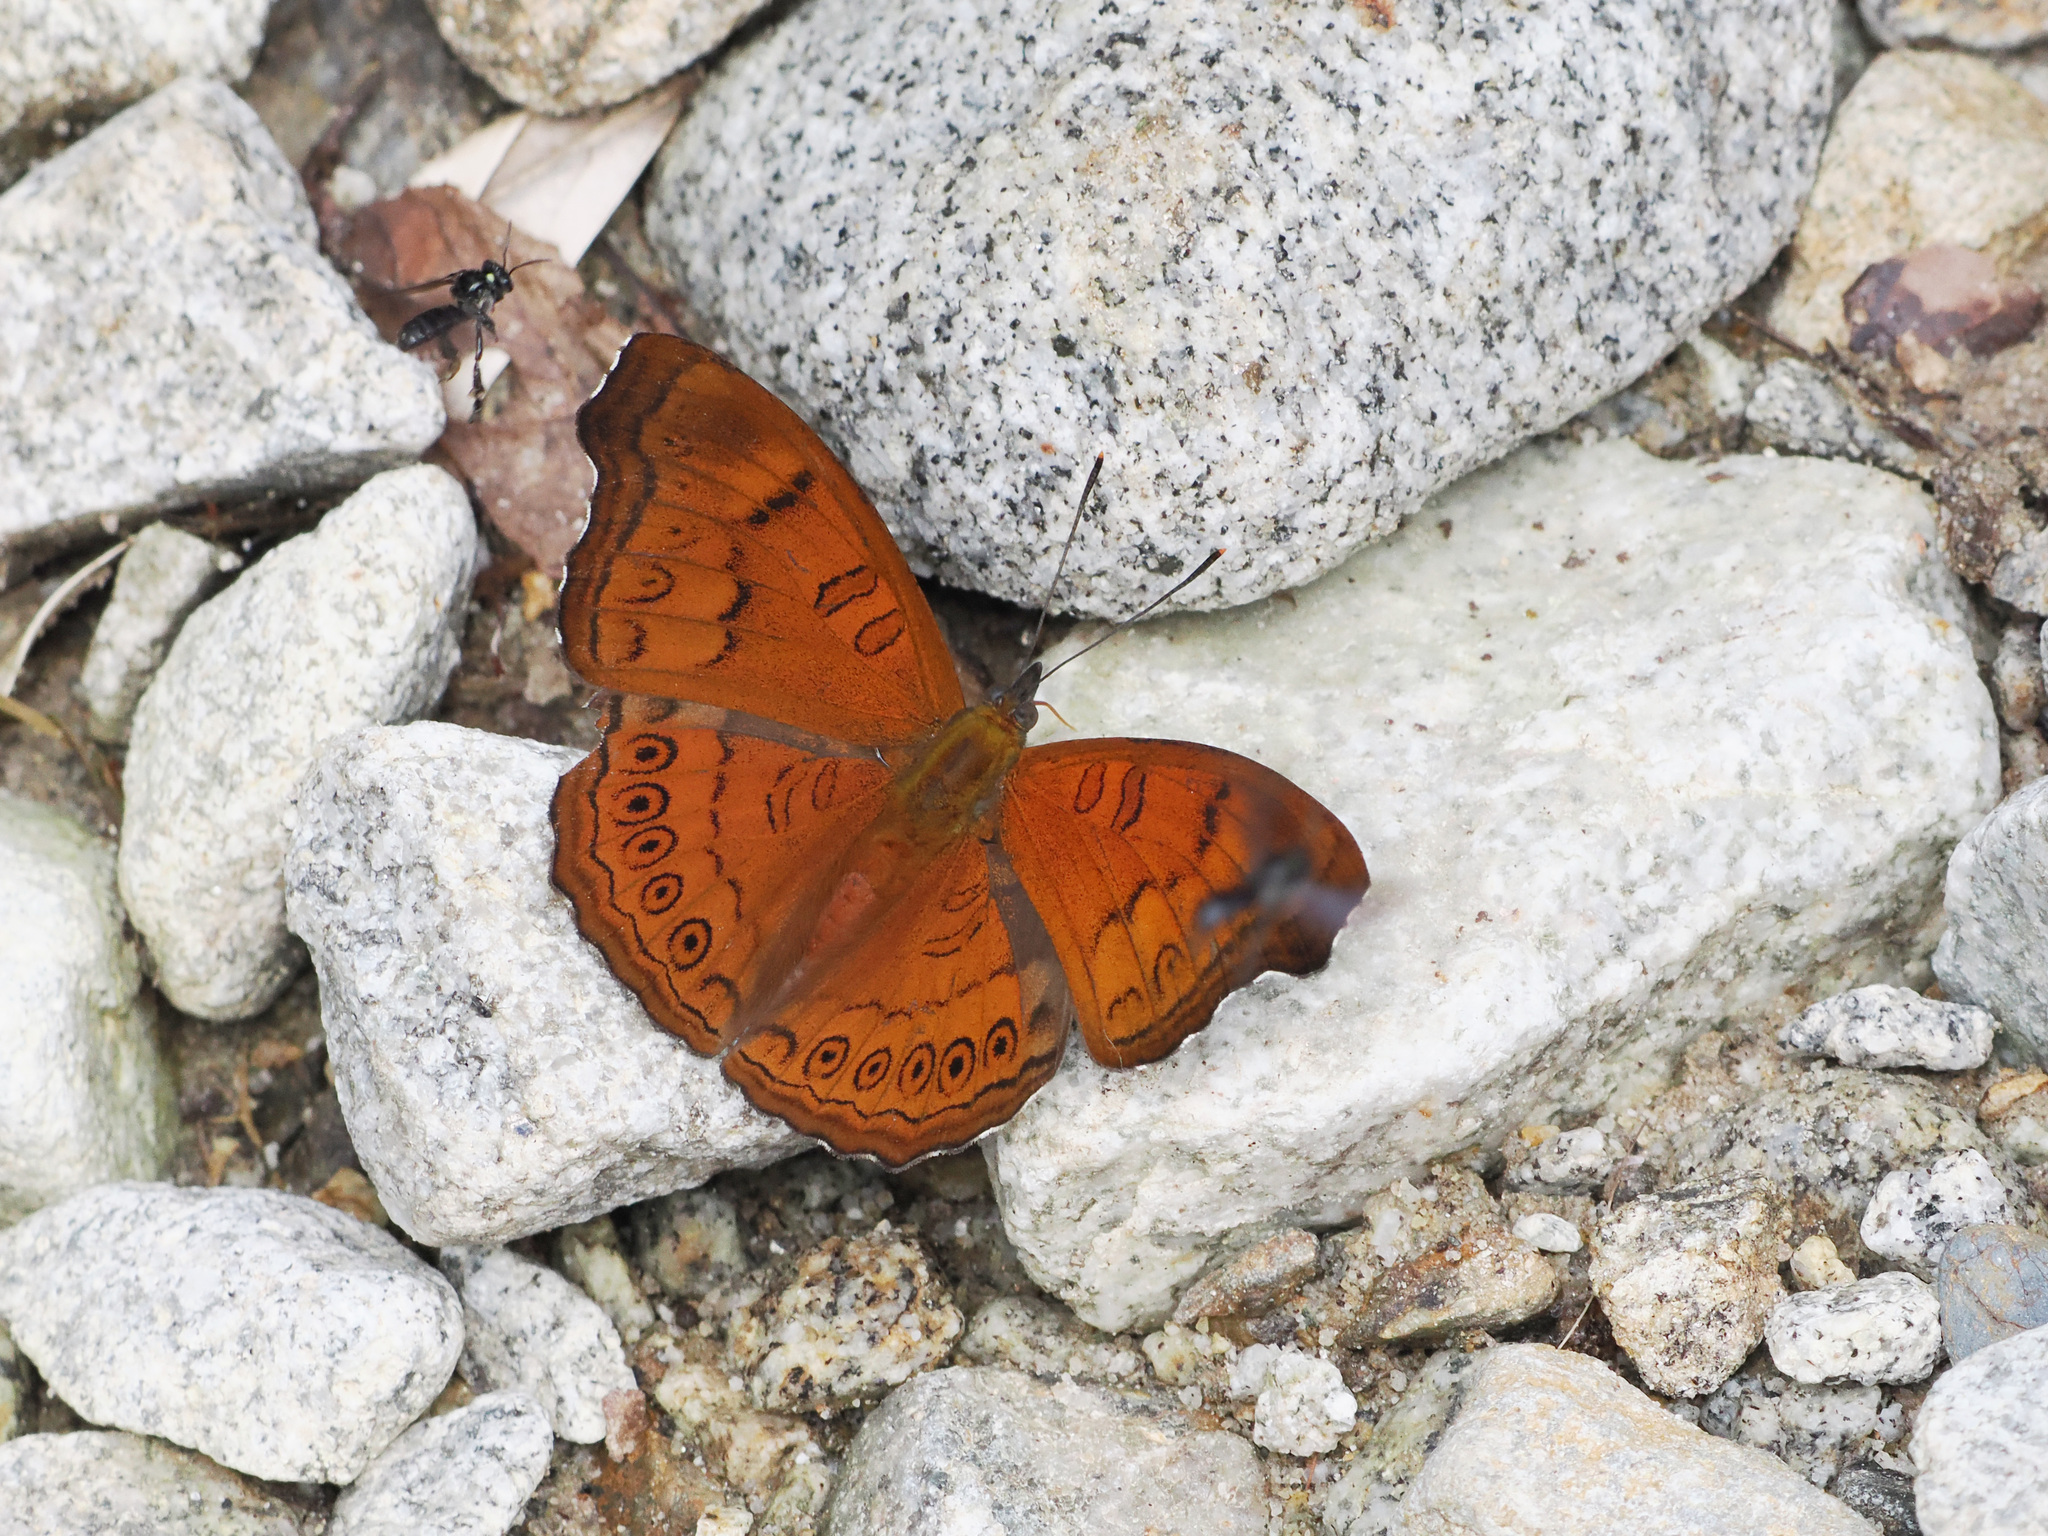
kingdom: Animalia
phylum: Arthropoda
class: Insecta
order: Lepidoptera
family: Nymphalidae
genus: Pseudergolis
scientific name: Pseudergolis avesta
